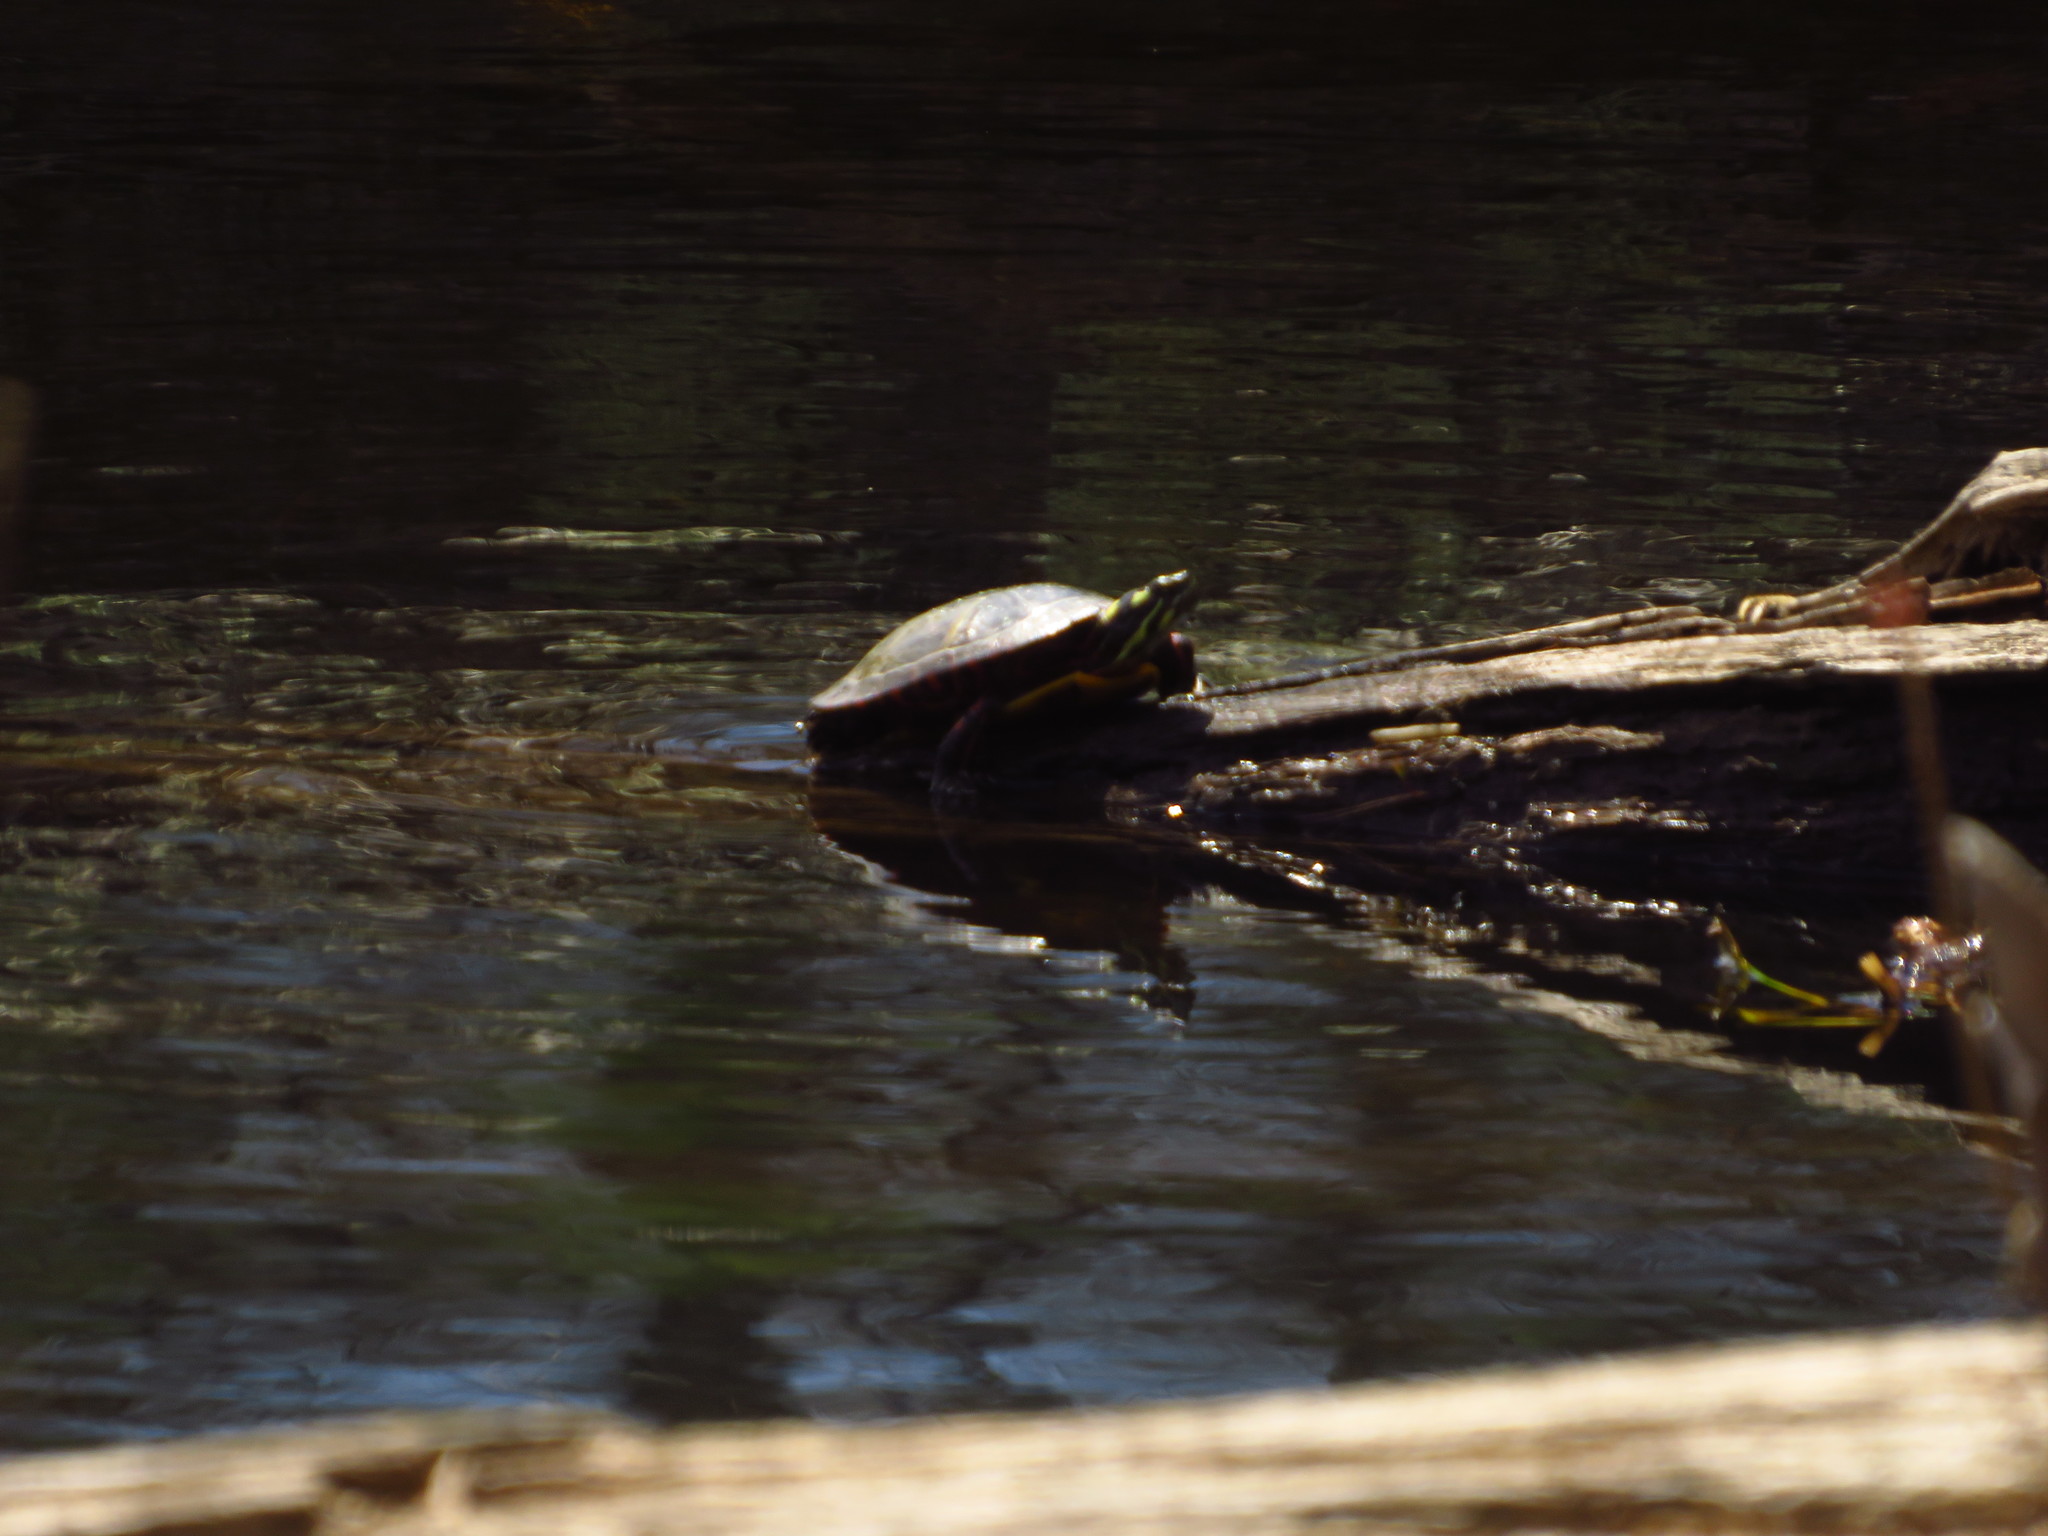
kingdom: Animalia
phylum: Chordata
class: Testudines
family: Emydidae
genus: Chrysemys
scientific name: Chrysemys picta
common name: Painted turtle
